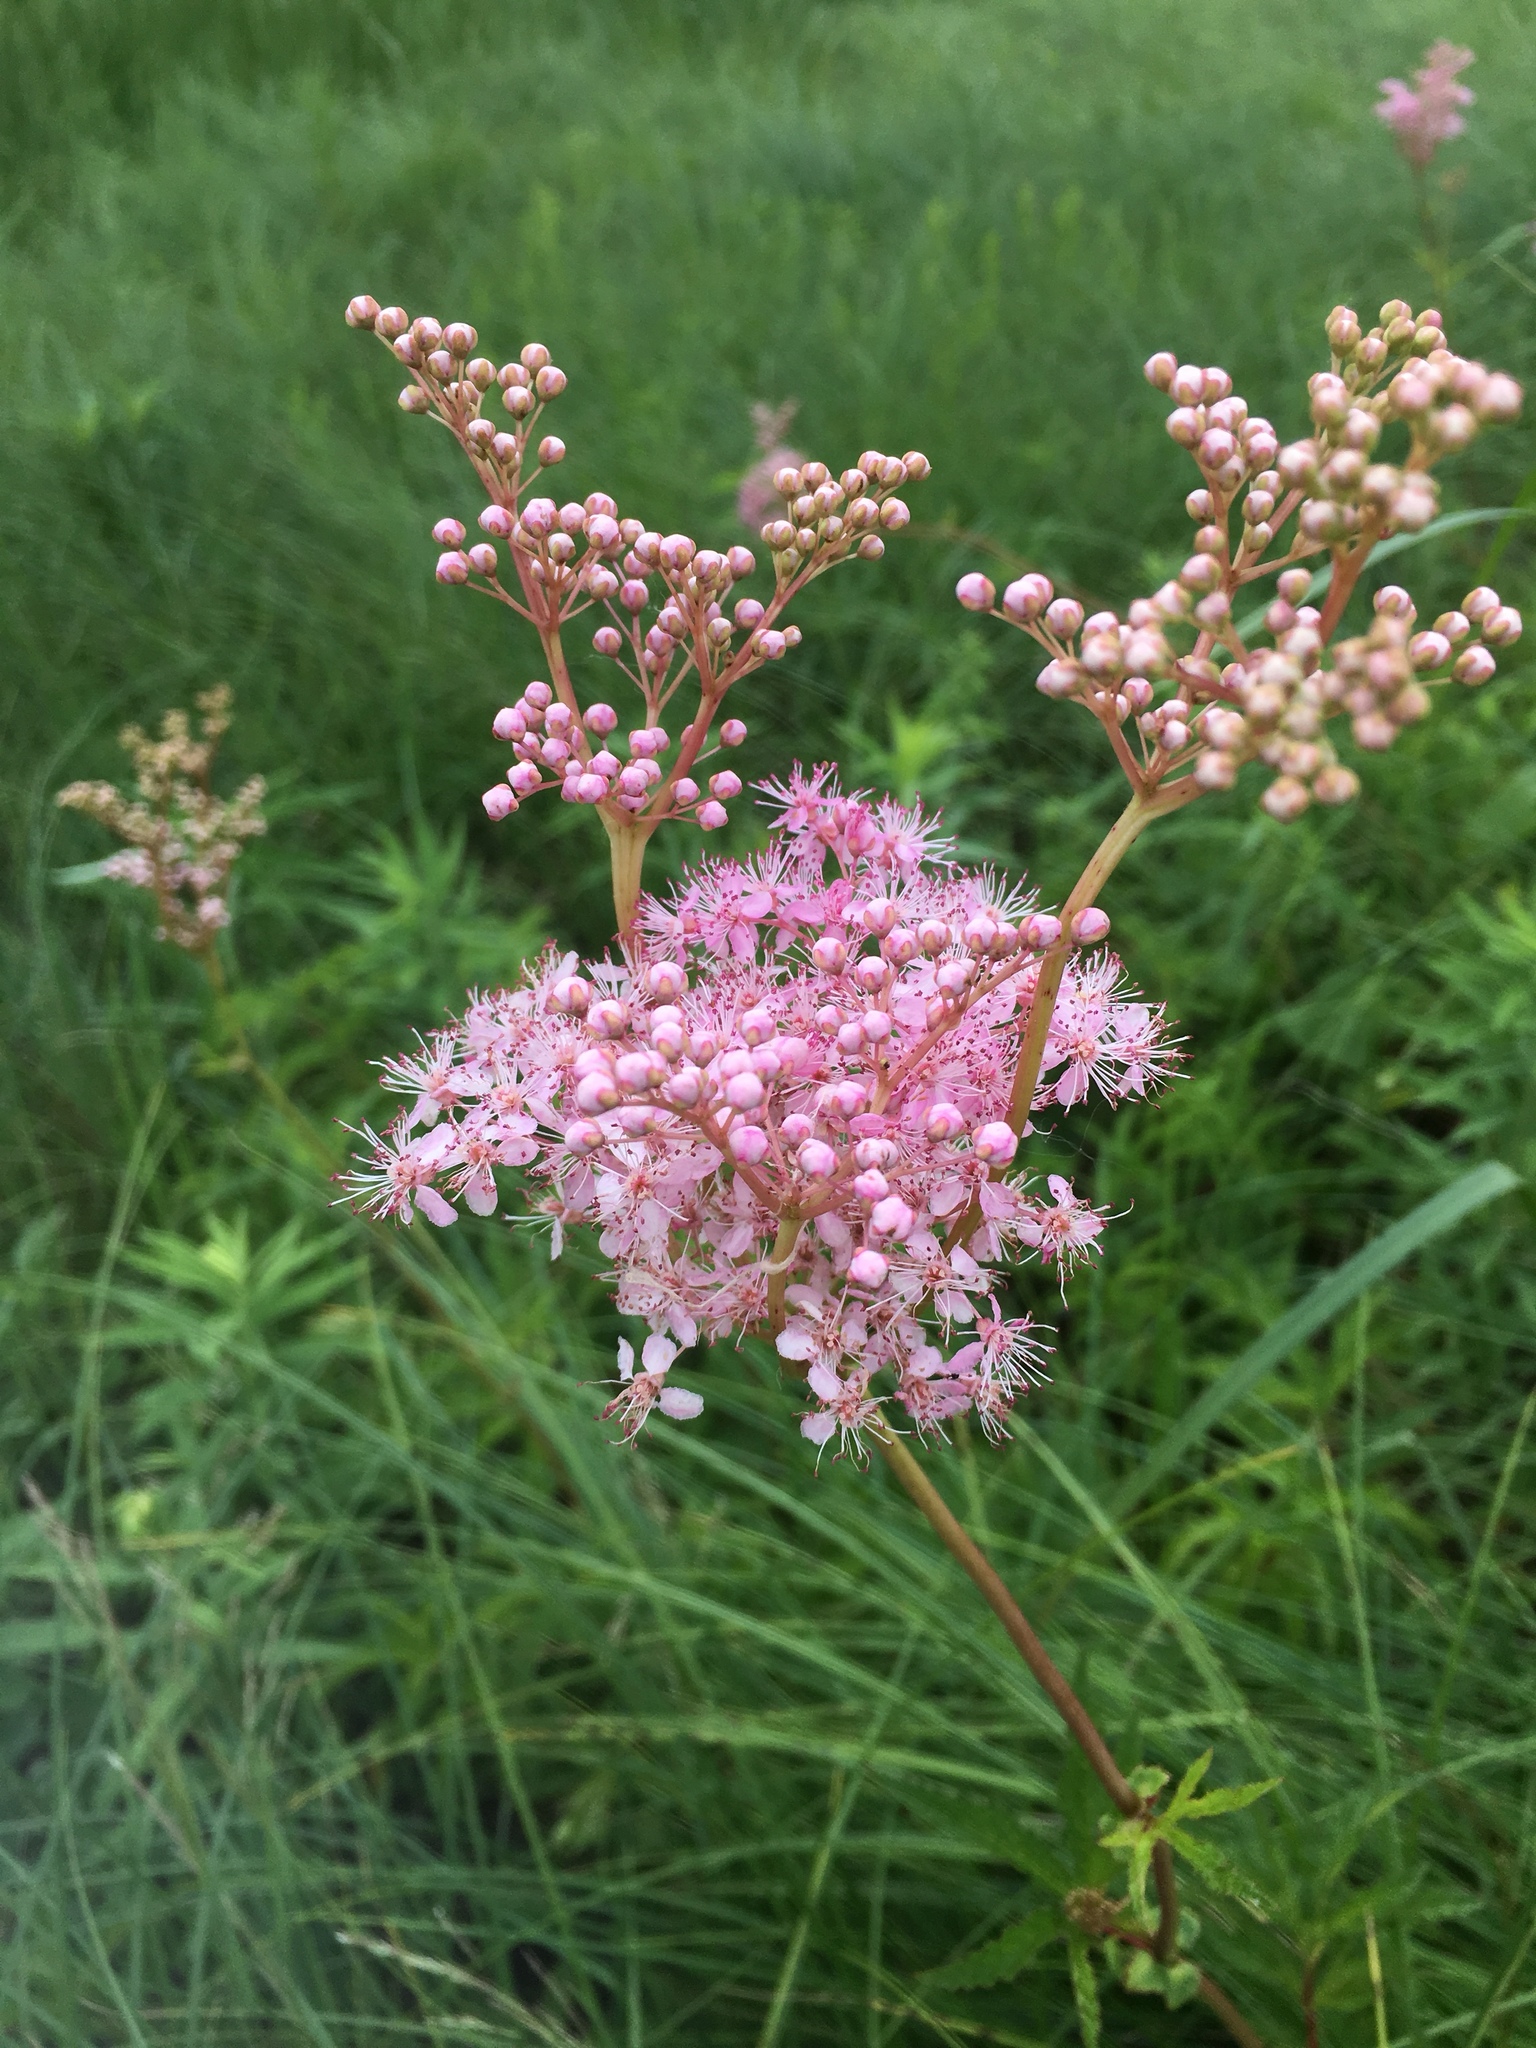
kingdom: Plantae
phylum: Tracheophyta
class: Magnoliopsida
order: Rosales
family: Rosaceae
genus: Filipendula
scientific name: Filipendula rubra
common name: Queen-of-the-prairie
